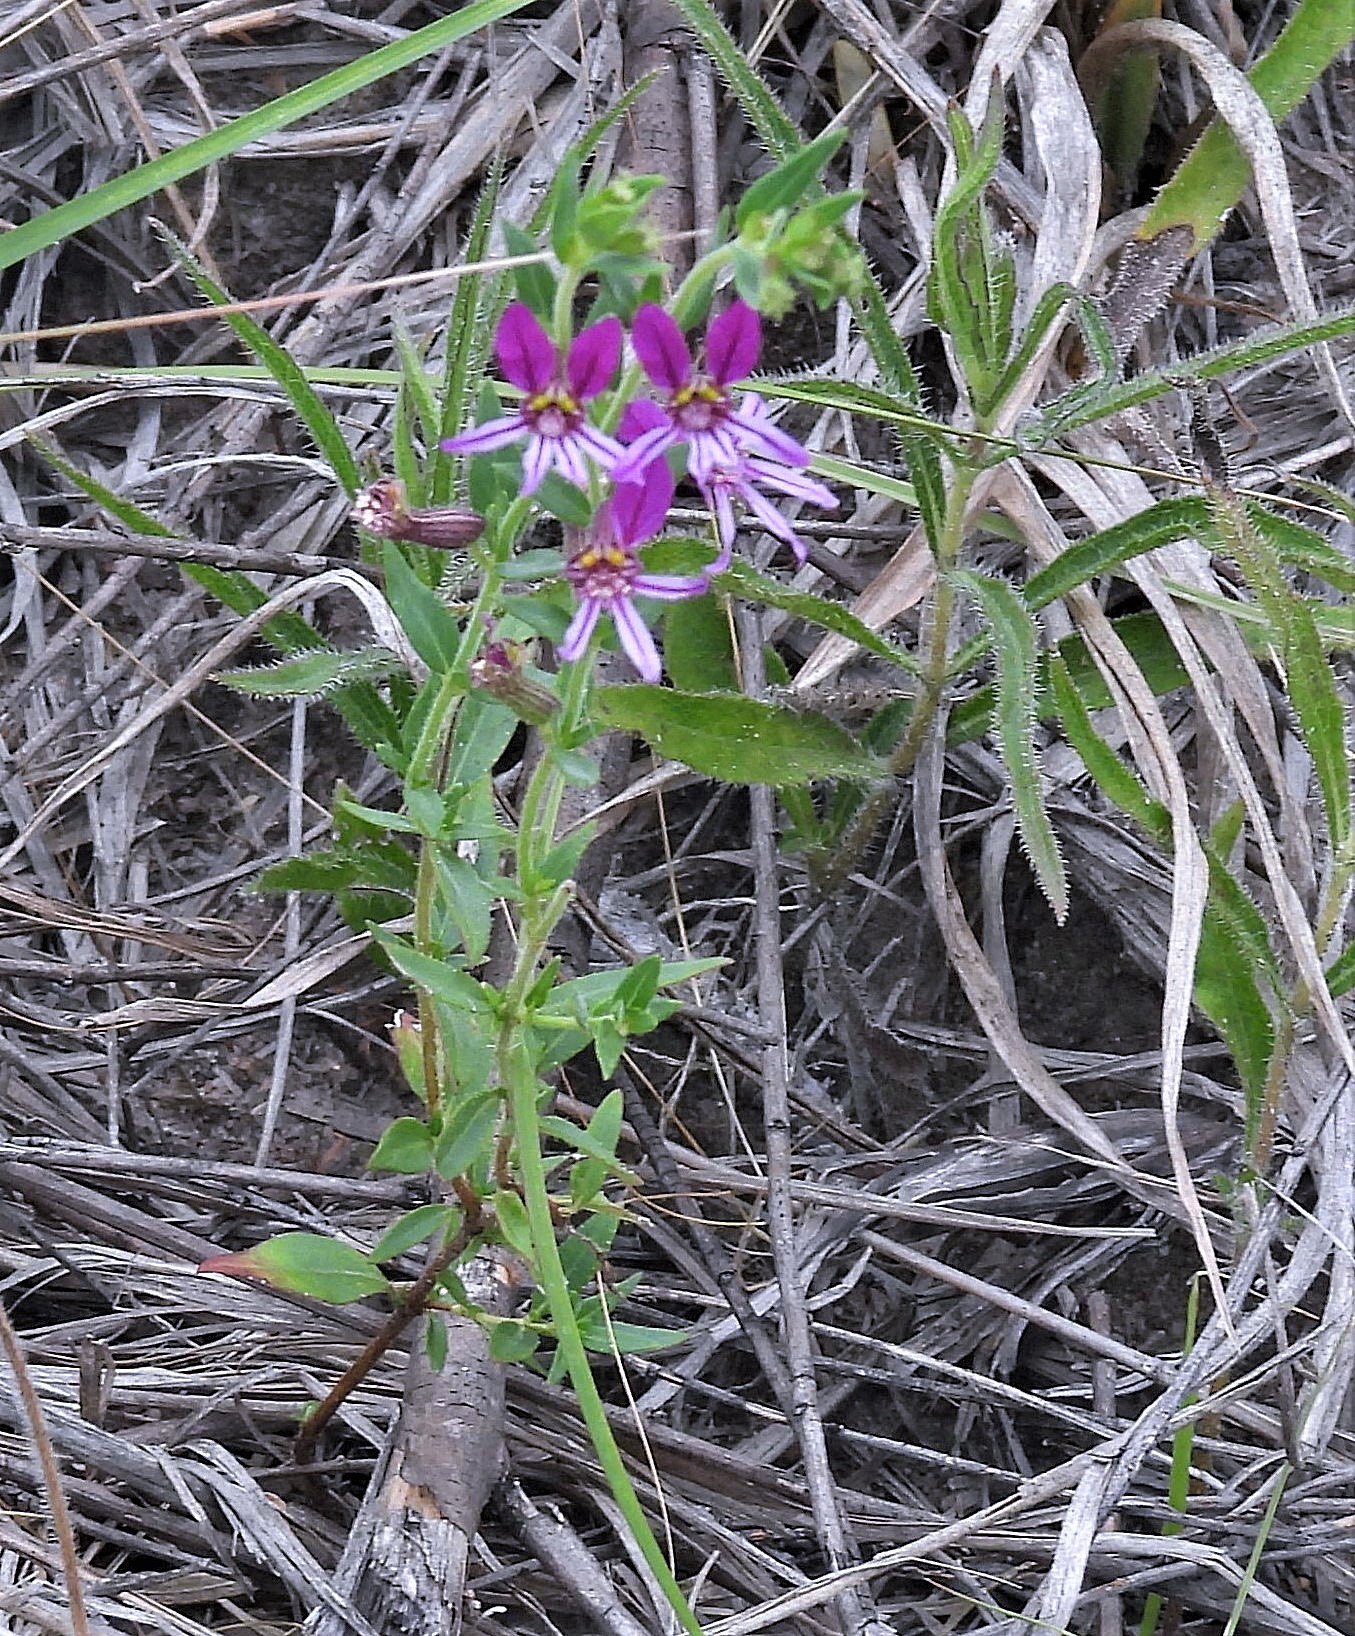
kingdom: Plantae
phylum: Tracheophyta
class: Magnoliopsida
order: Myrtales
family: Lythraceae
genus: Cuphea
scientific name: Cuphea glutinosa
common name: Sticky waxweed
